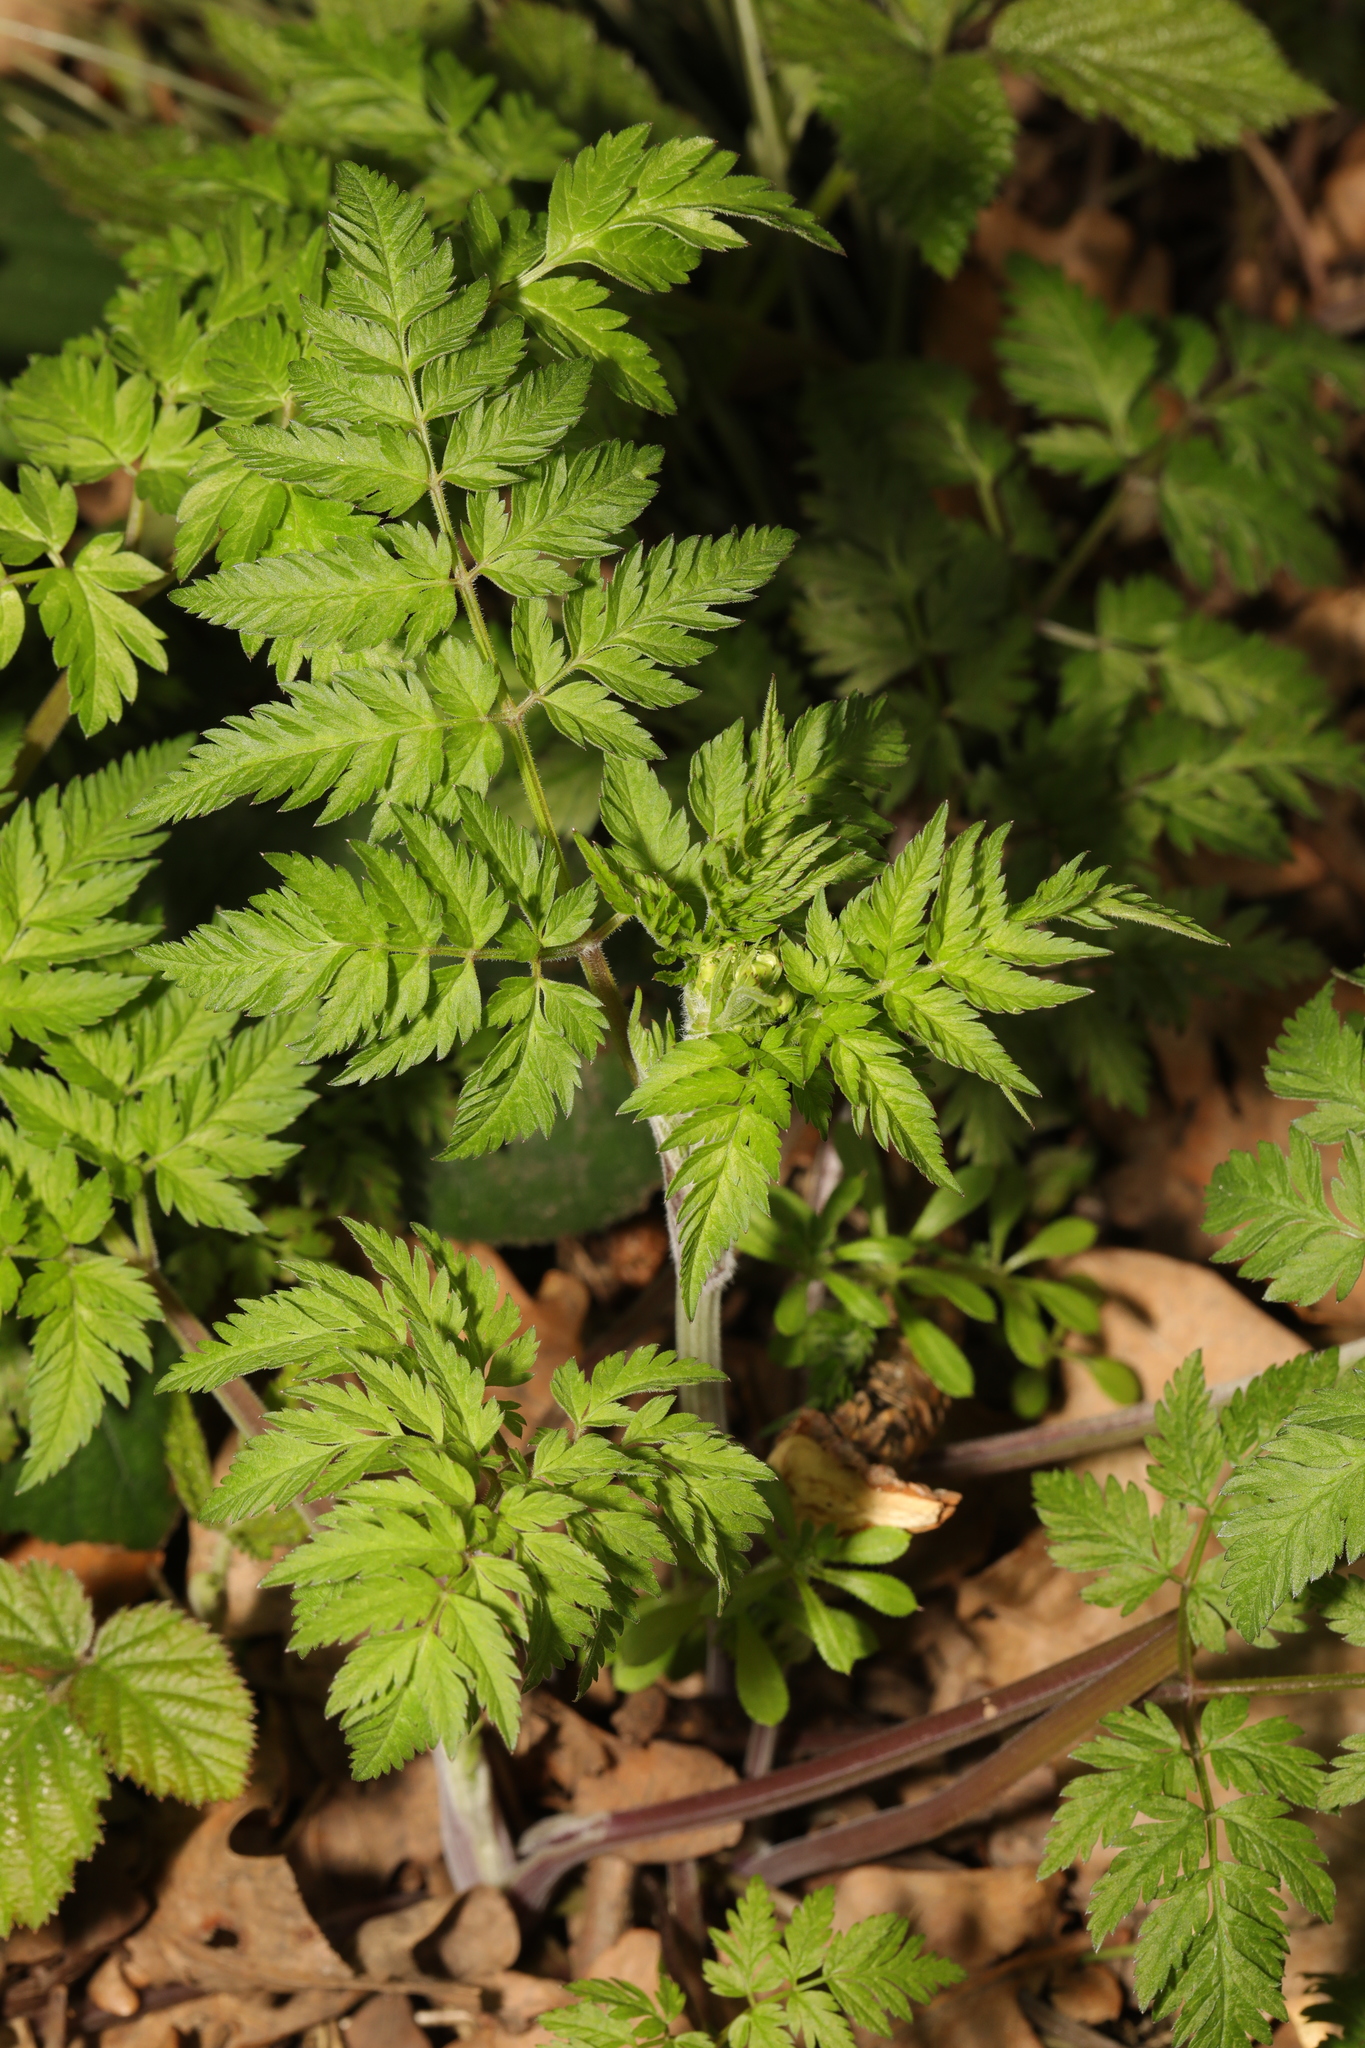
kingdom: Plantae
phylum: Tracheophyta
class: Magnoliopsida
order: Apiales
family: Apiaceae
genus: Anthriscus
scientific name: Anthriscus sylvestris
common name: Cow parsley
